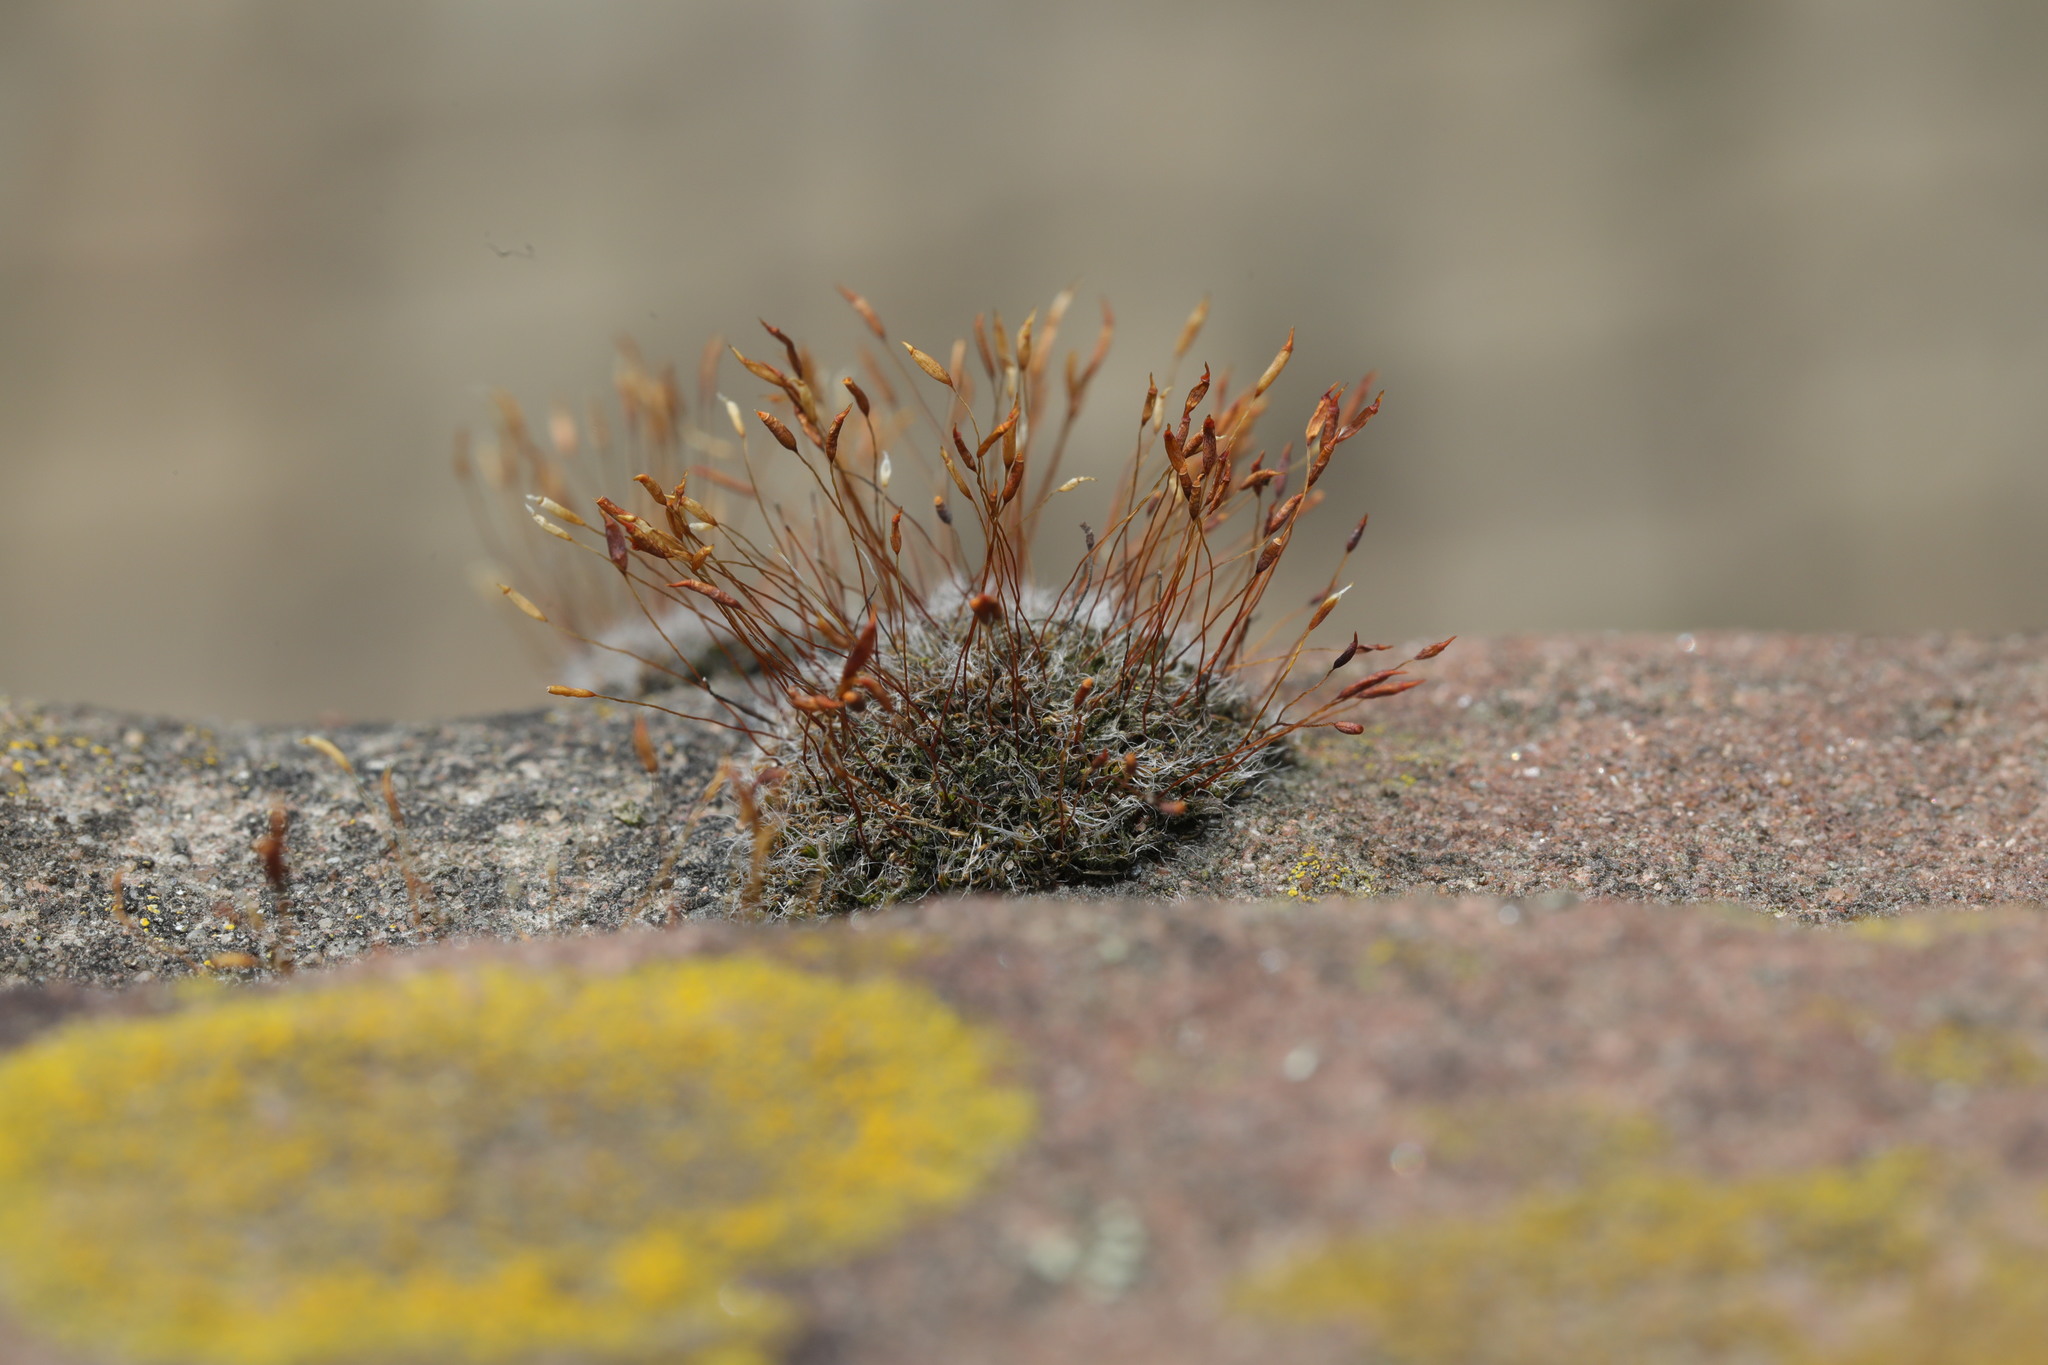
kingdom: Plantae
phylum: Bryophyta
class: Bryopsida
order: Pottiales
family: Pottiaceae
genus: Tortula
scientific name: Tortula muralis
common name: Wall screw-moss
